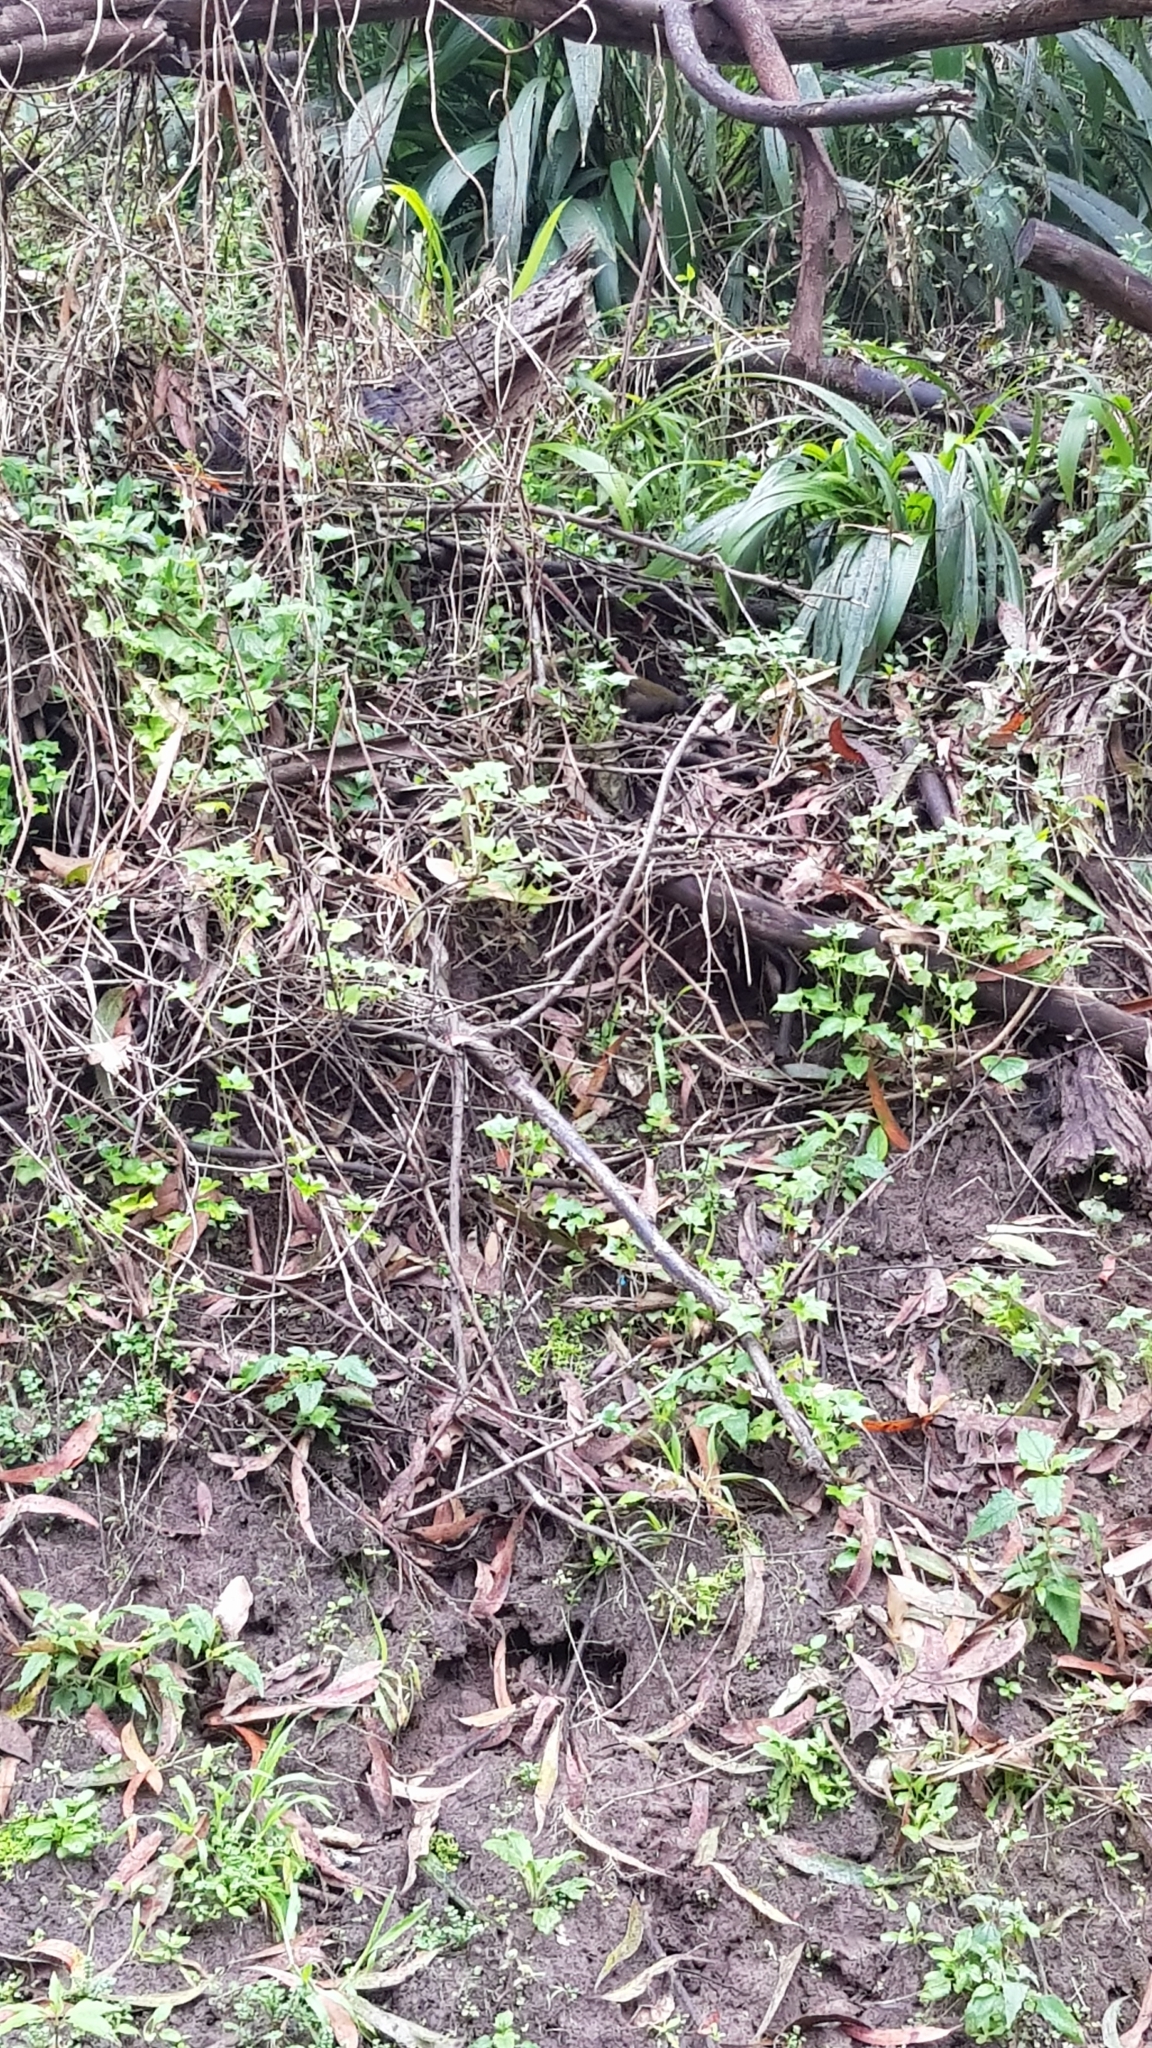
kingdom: Animalia
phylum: Chordata
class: Aves
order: Passeriformes
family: Psophodidae
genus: Psophodes
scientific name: Psophodes olivaceus
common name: Eastern whipbird
